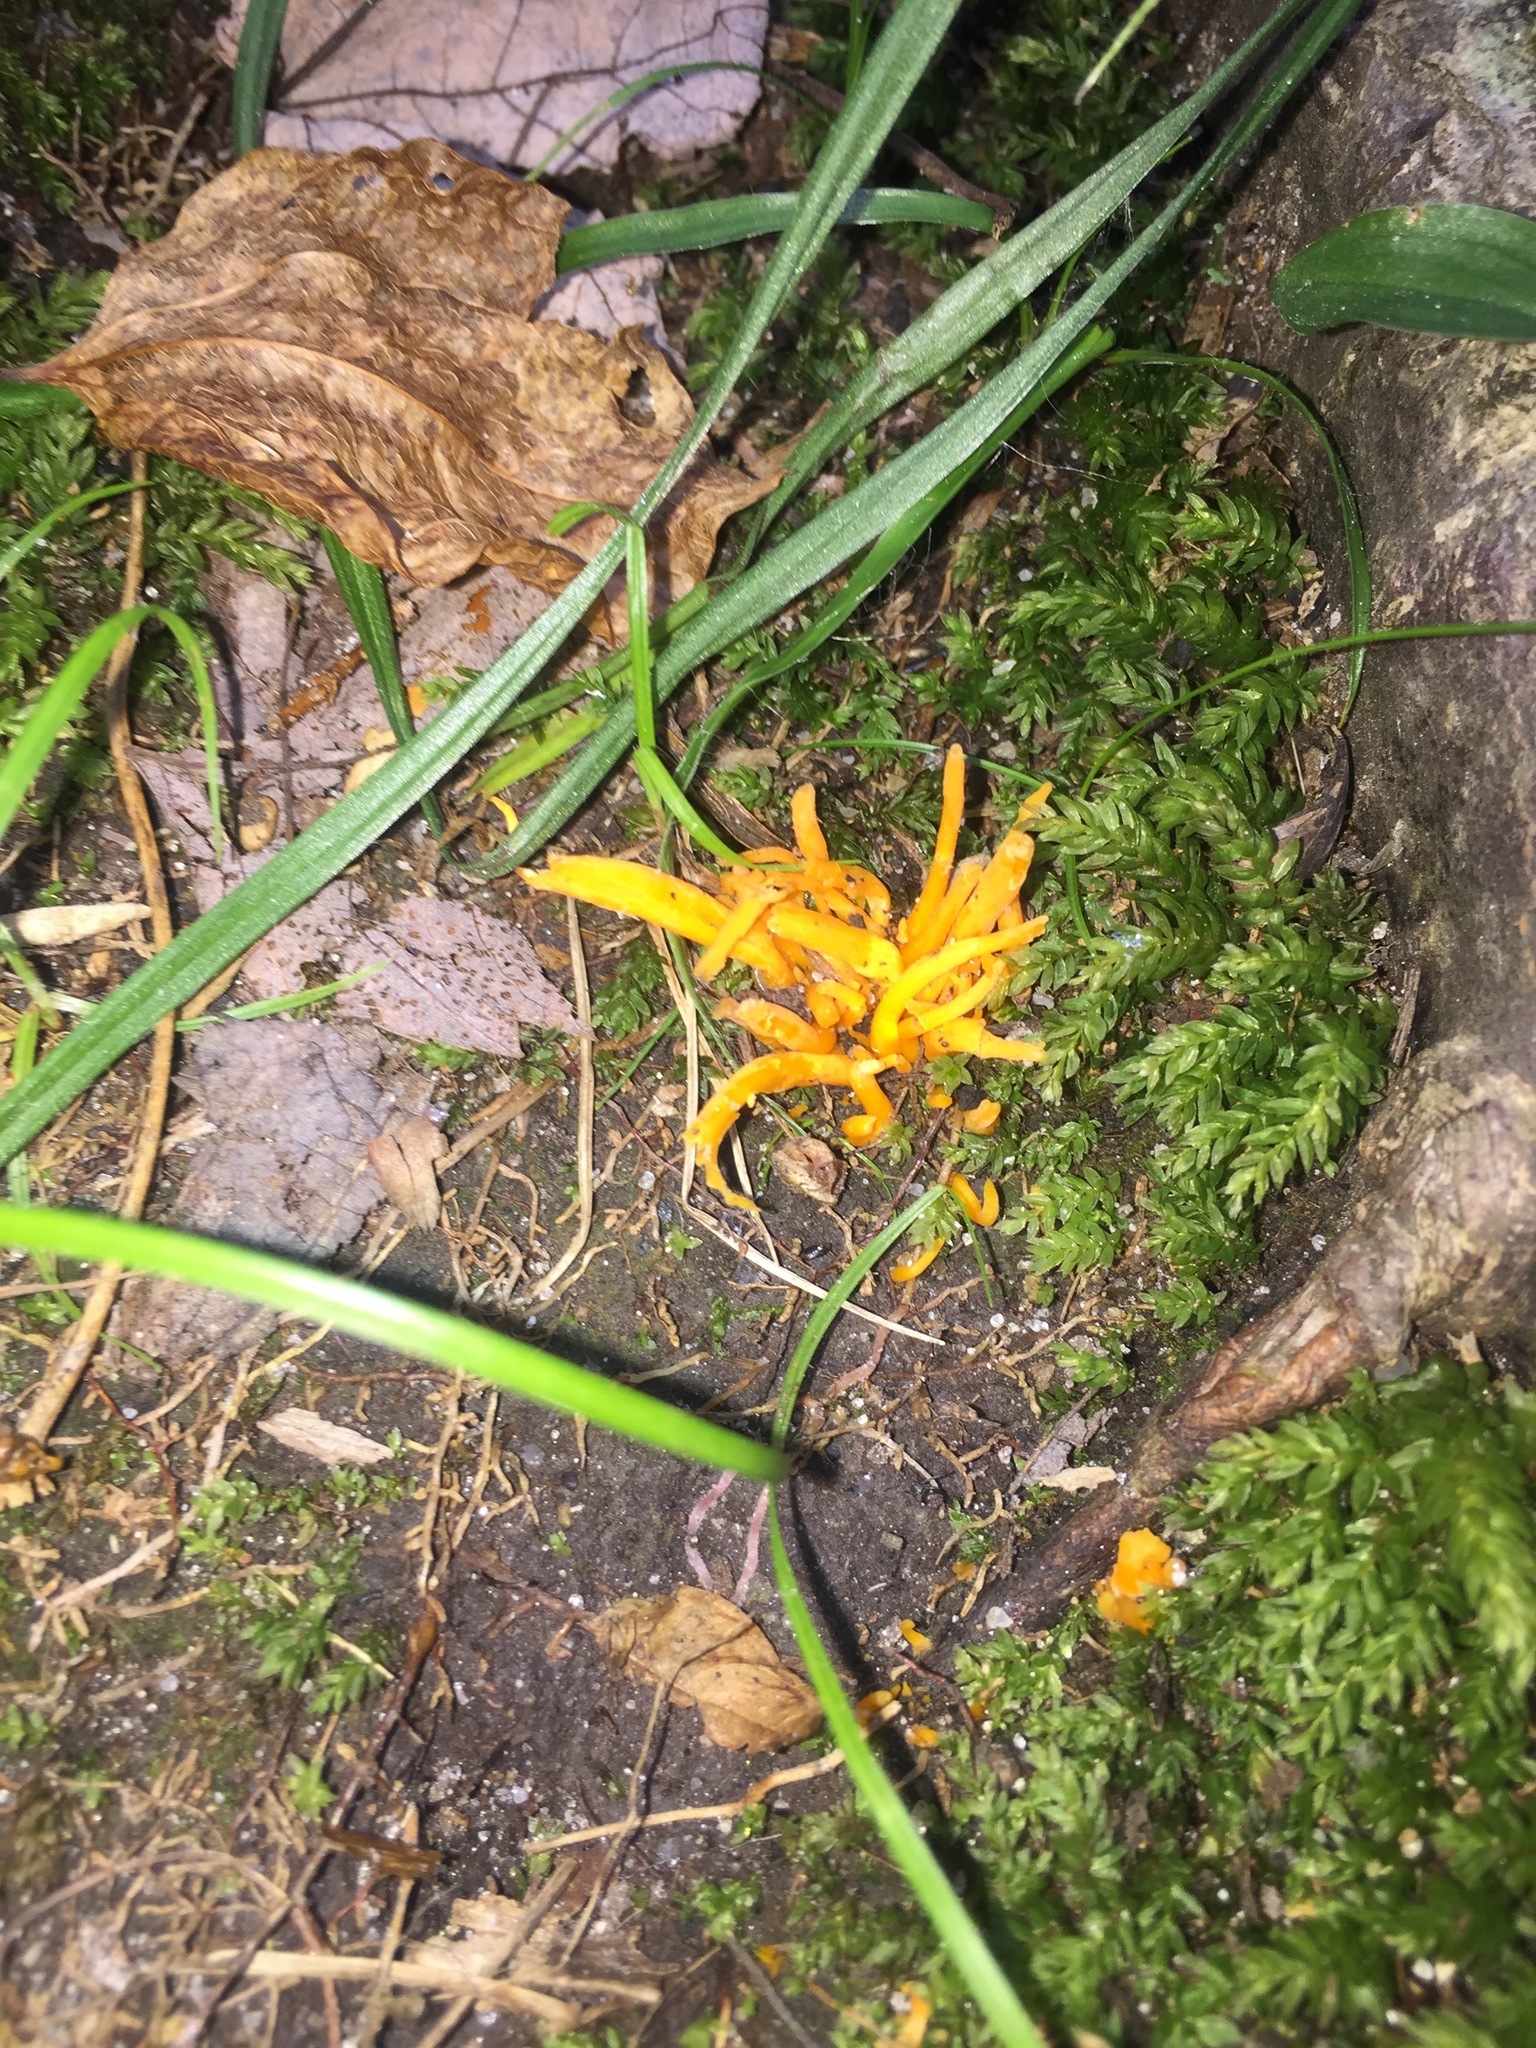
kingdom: Fungi
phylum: Basidiomycota
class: Agaricomycetes
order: Agaricales
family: Clavariaceae
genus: Clavulinopsis
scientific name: Clavulinopsis fusiformis
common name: Golden spindles
